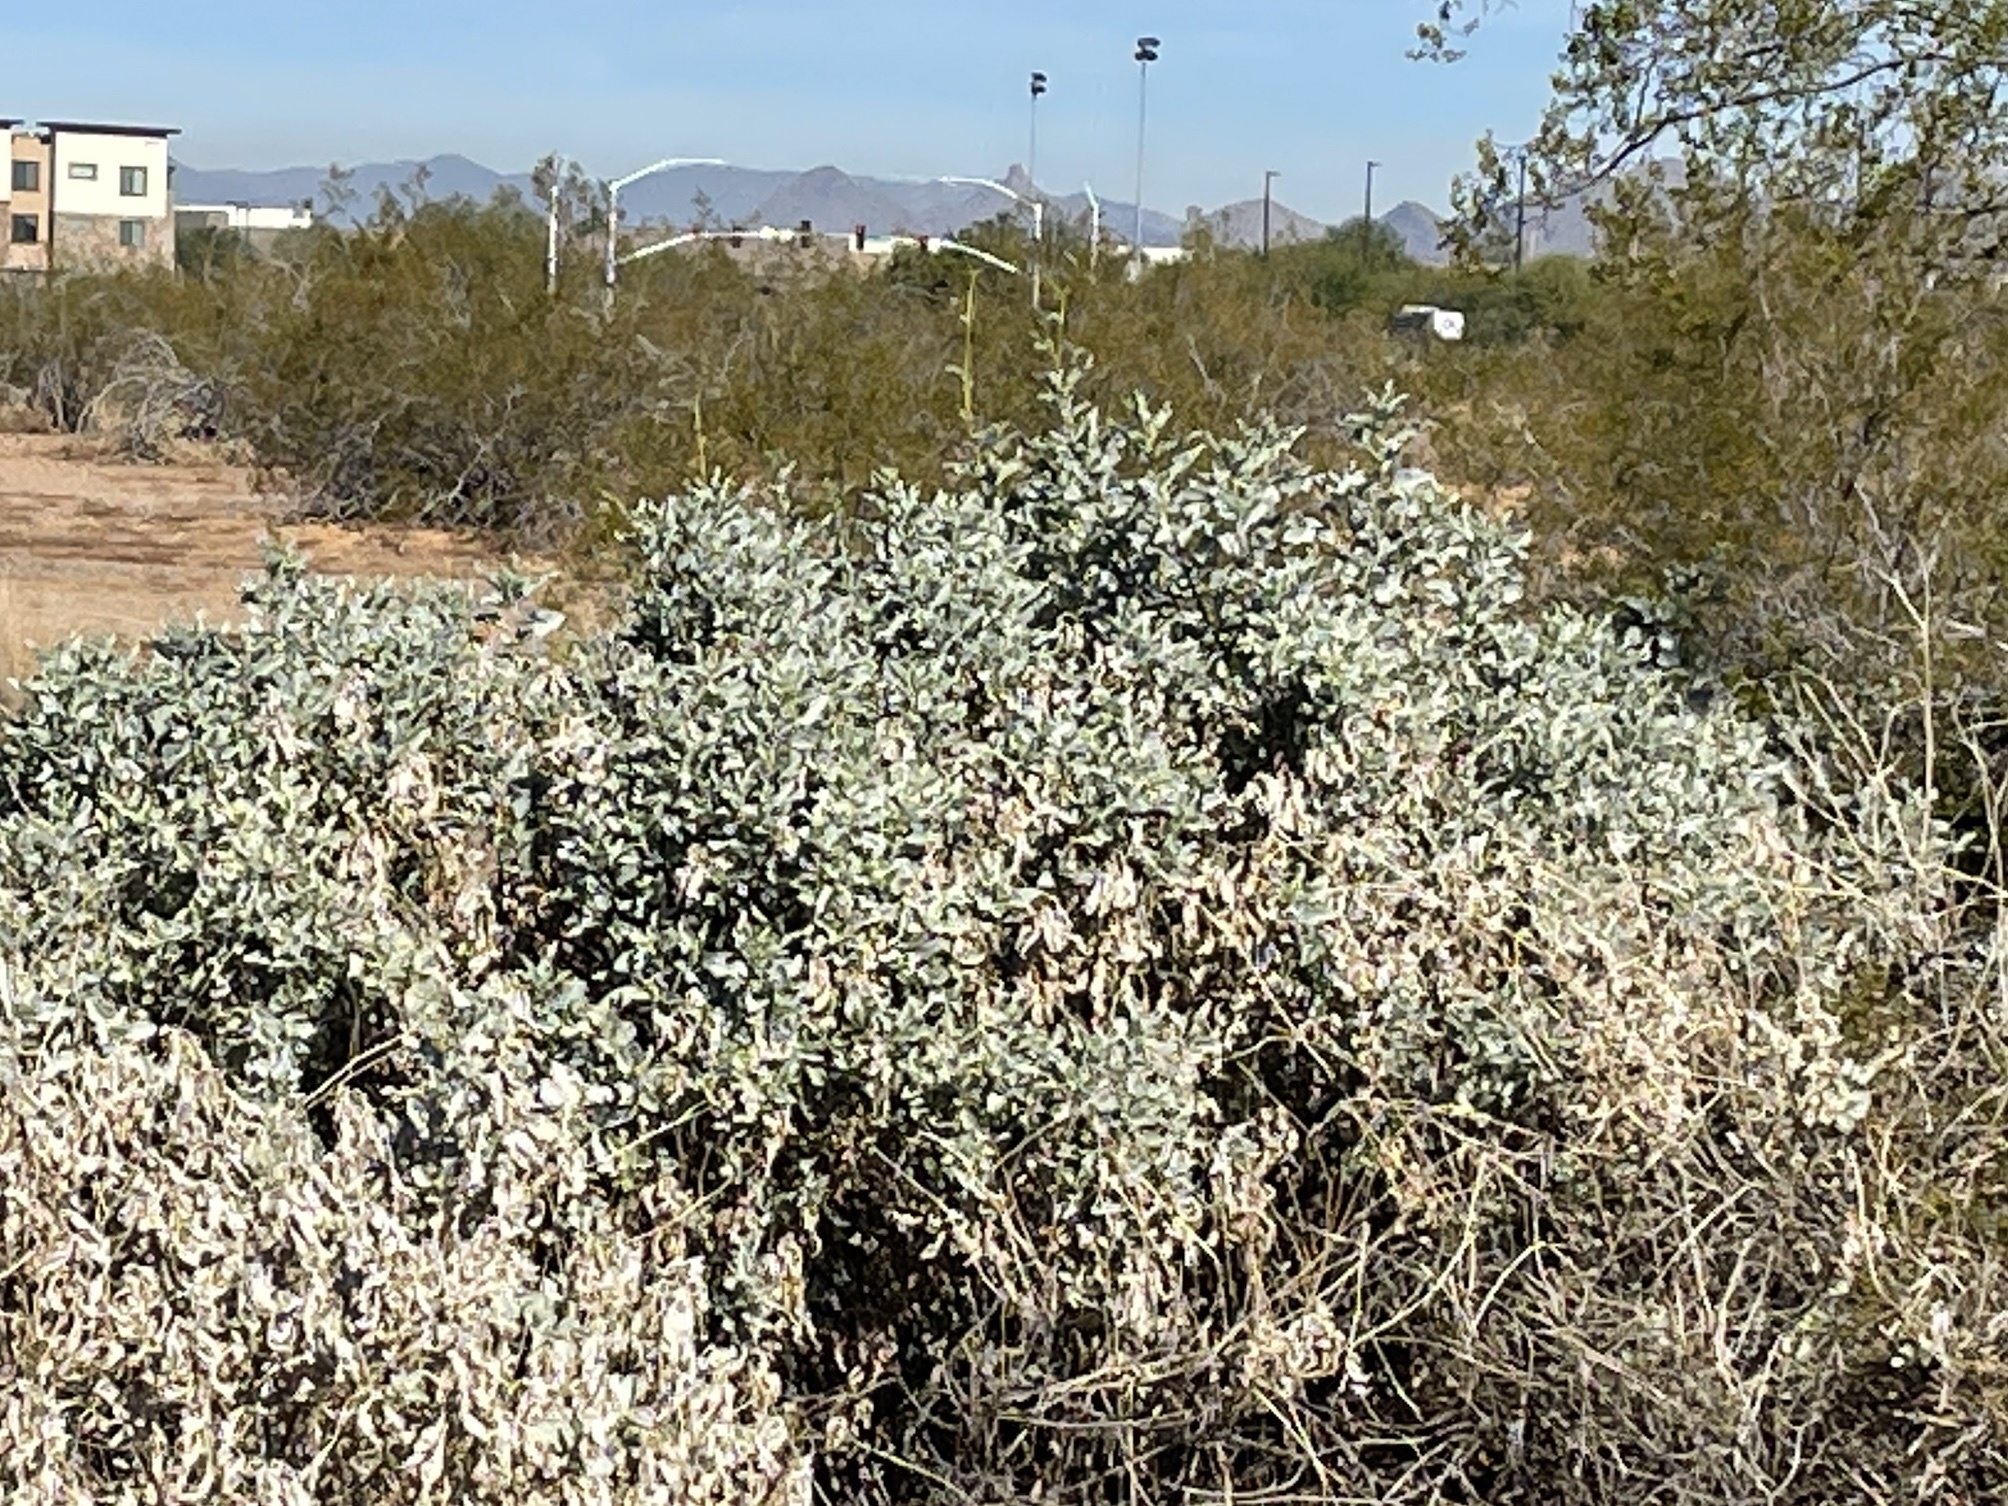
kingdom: Plantae
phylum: Tracheophyta
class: Magnoliopsida
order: Asterales
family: Asteraceae
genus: Encelia
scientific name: Encelia farinosa
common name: Brittlebush
